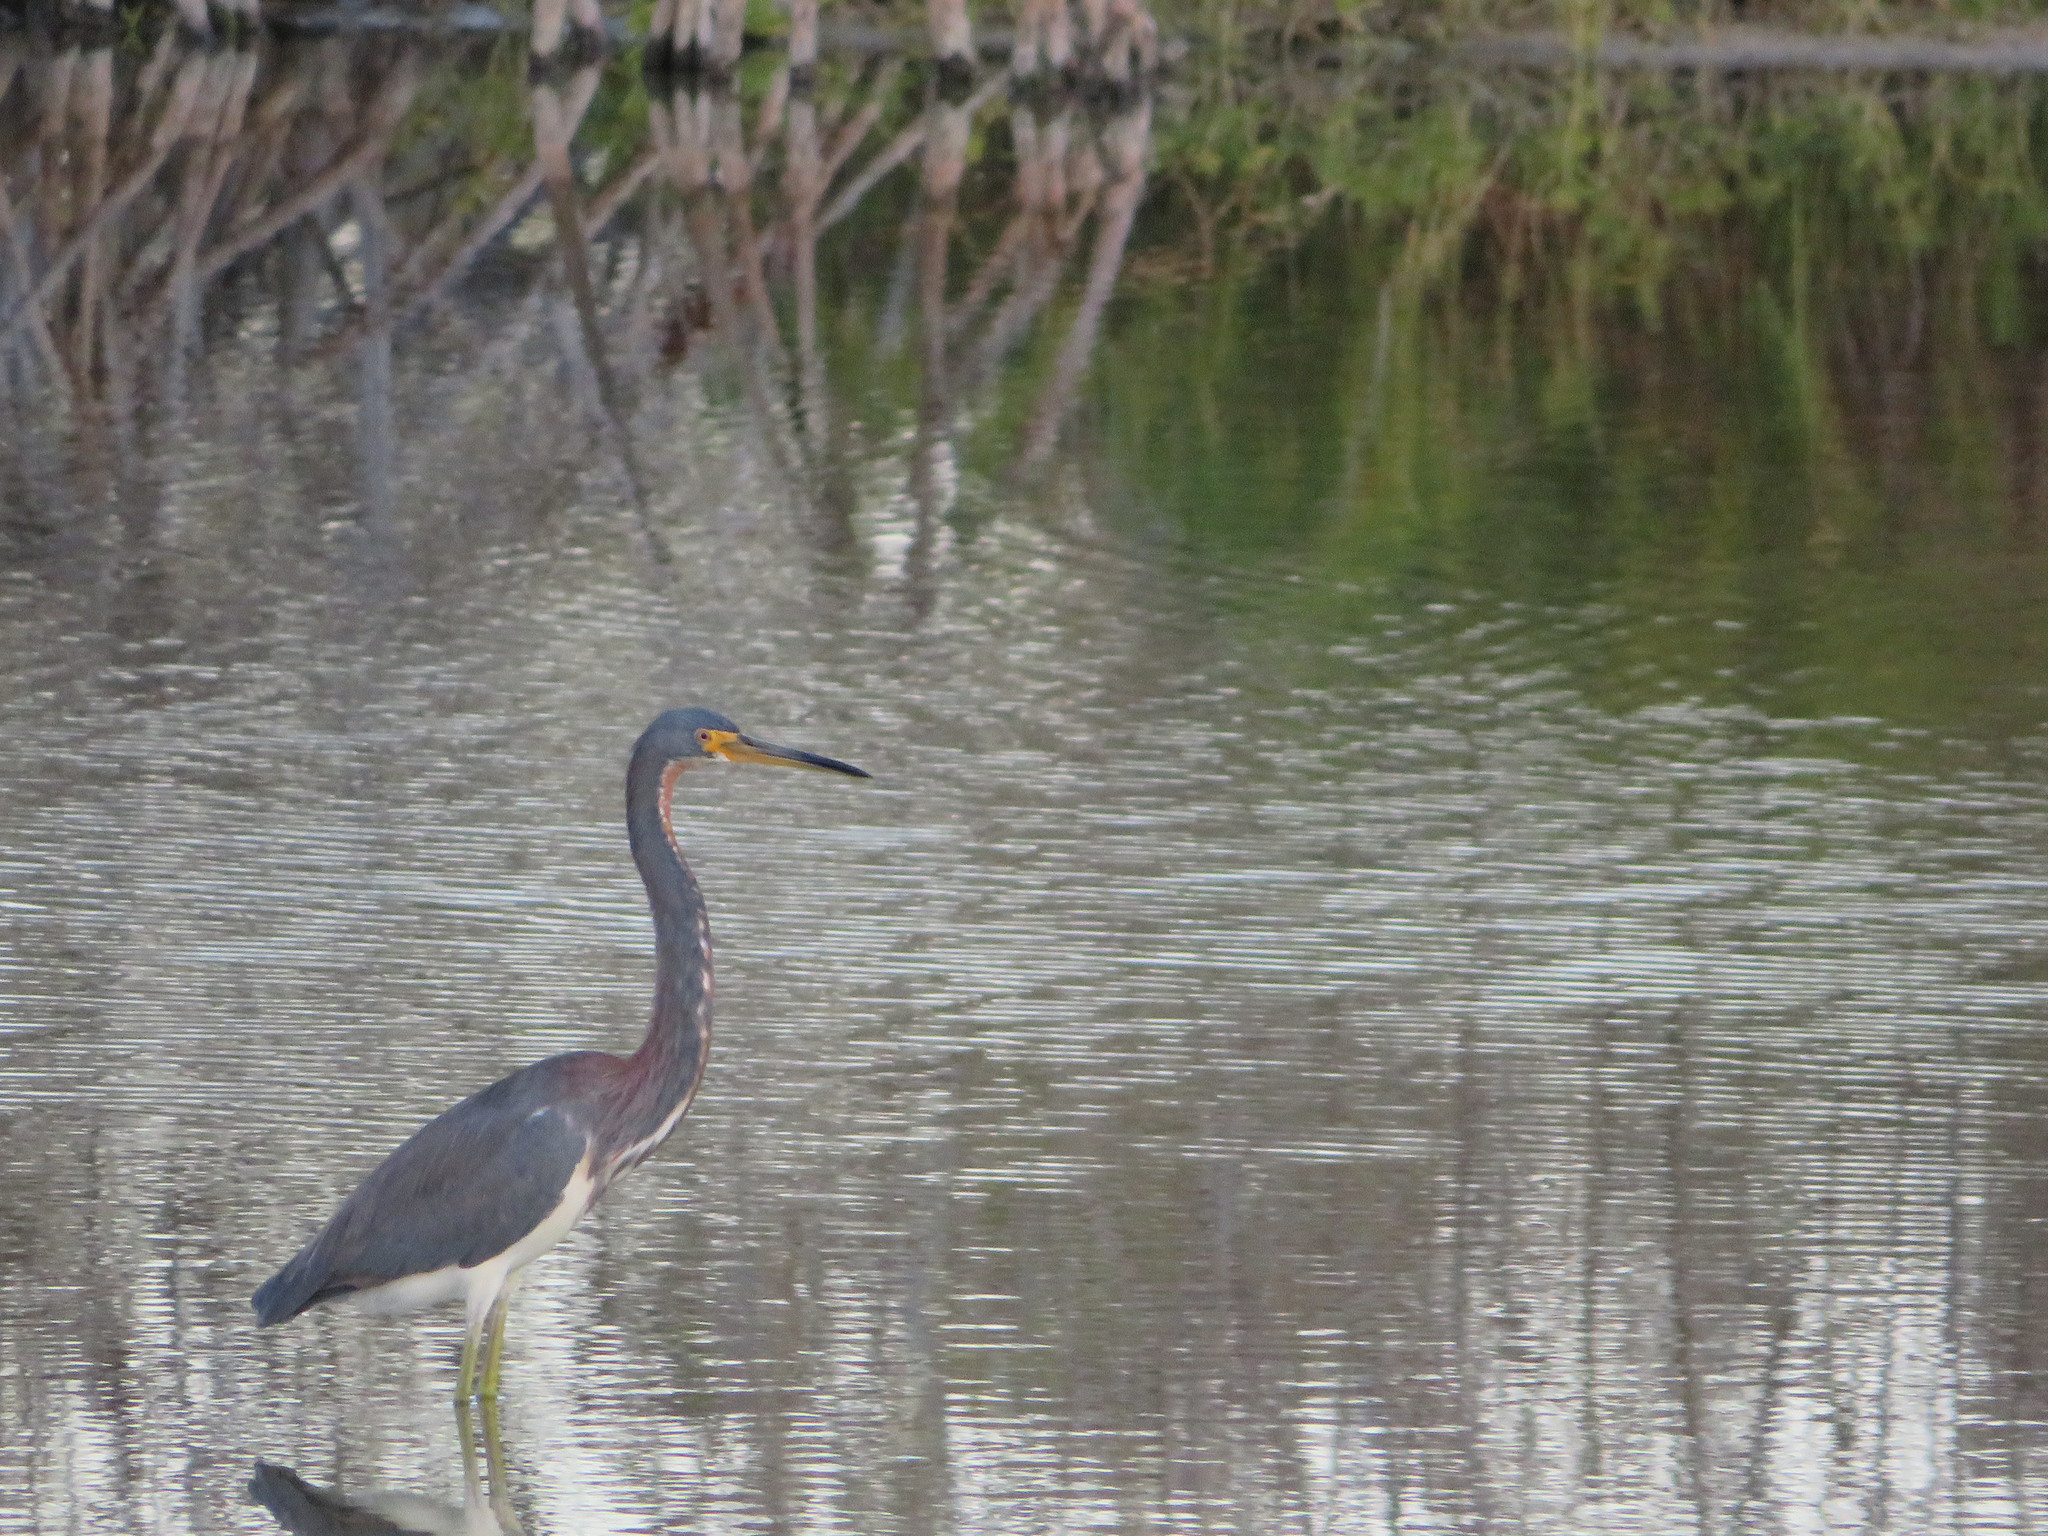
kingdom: Animalia
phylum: Chordata
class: Aves
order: Pelecaniformes
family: Ardeidae
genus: Egretta
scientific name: Egretta tricolor
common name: Tricolored heron
